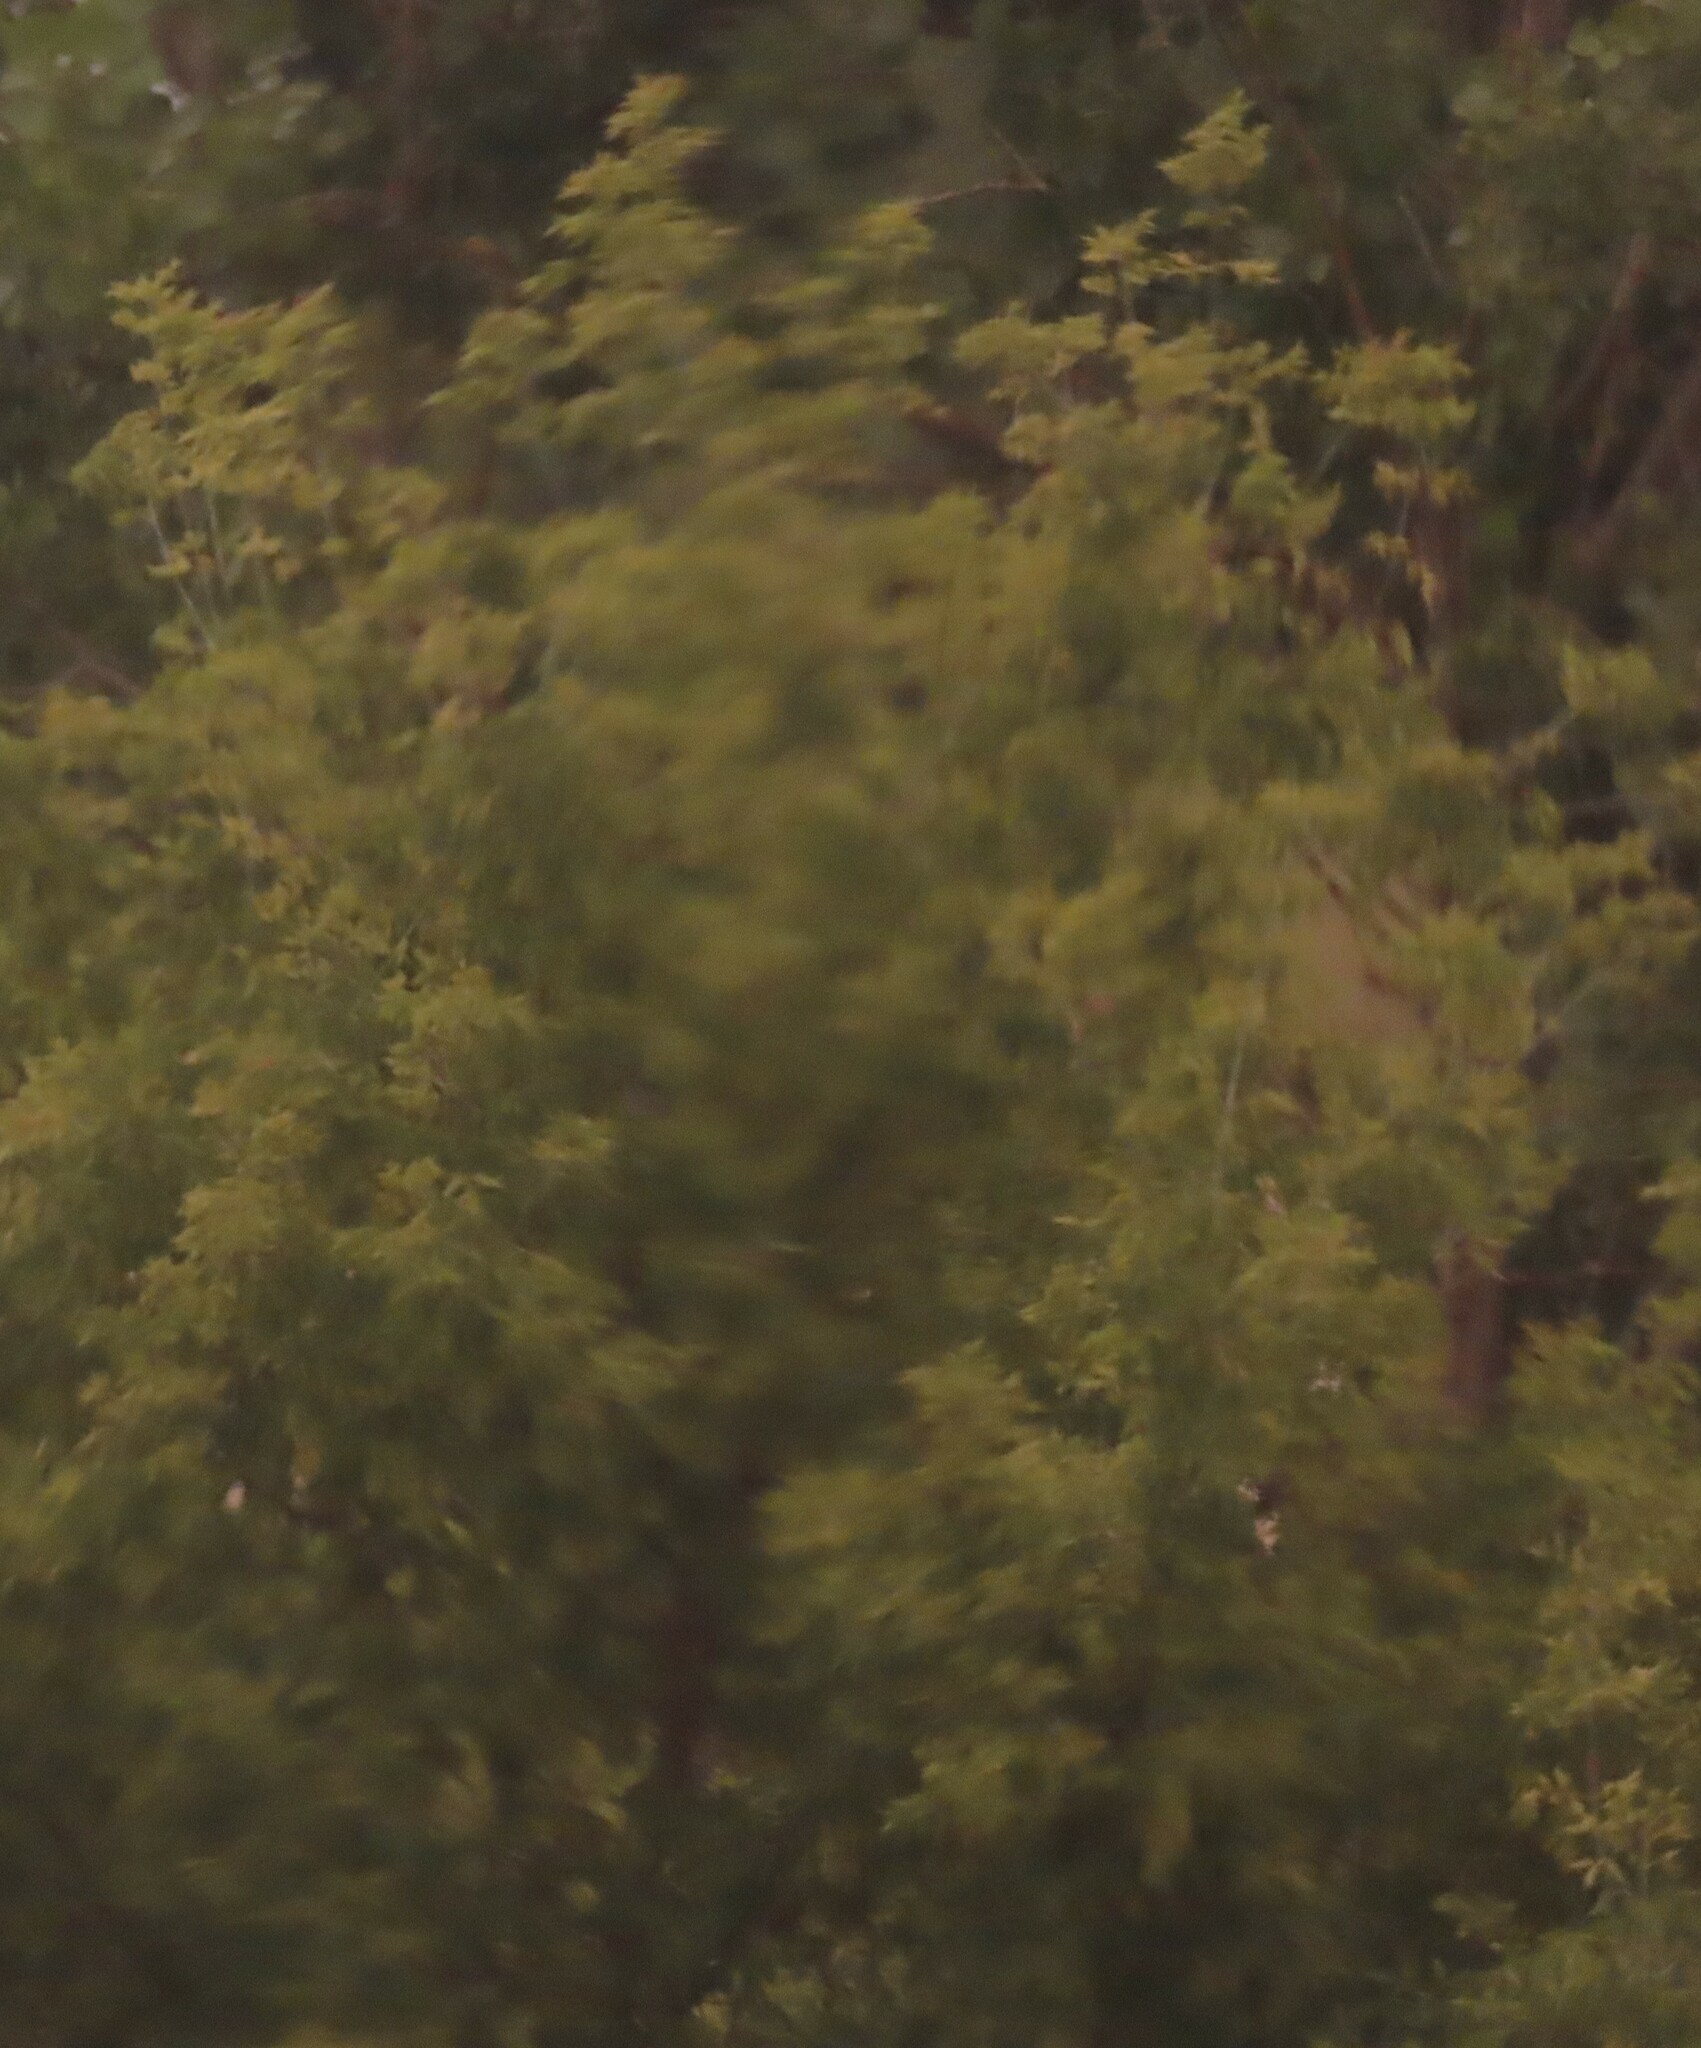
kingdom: Plantae
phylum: Tracheophyta
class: Magnoliopsida
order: Sapindales
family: Sapindaceae
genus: Acer
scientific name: Acer negundo
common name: Ashleaf maple
